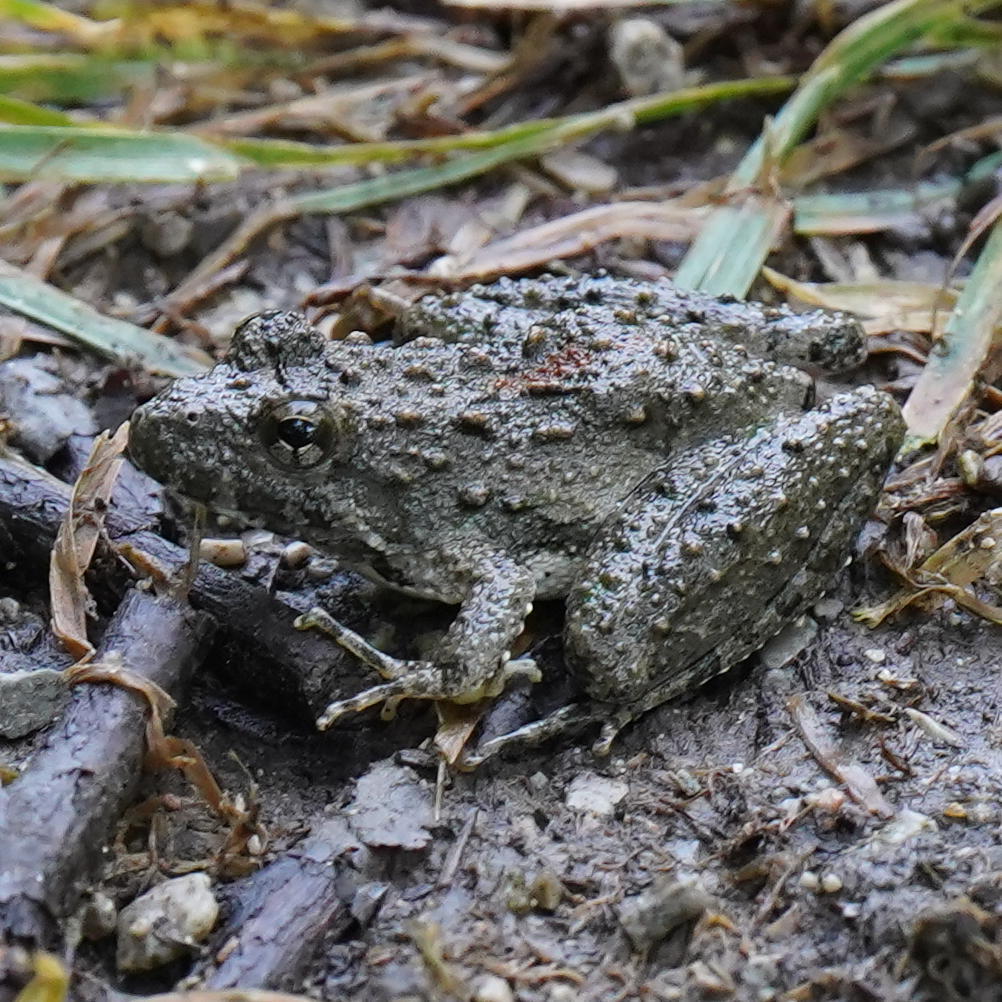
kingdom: Animalia
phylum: Chordata
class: Amphibia
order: Anura
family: Hylidae
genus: Acris
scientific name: Acris blanchardi
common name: Blanchard's cricket frog
